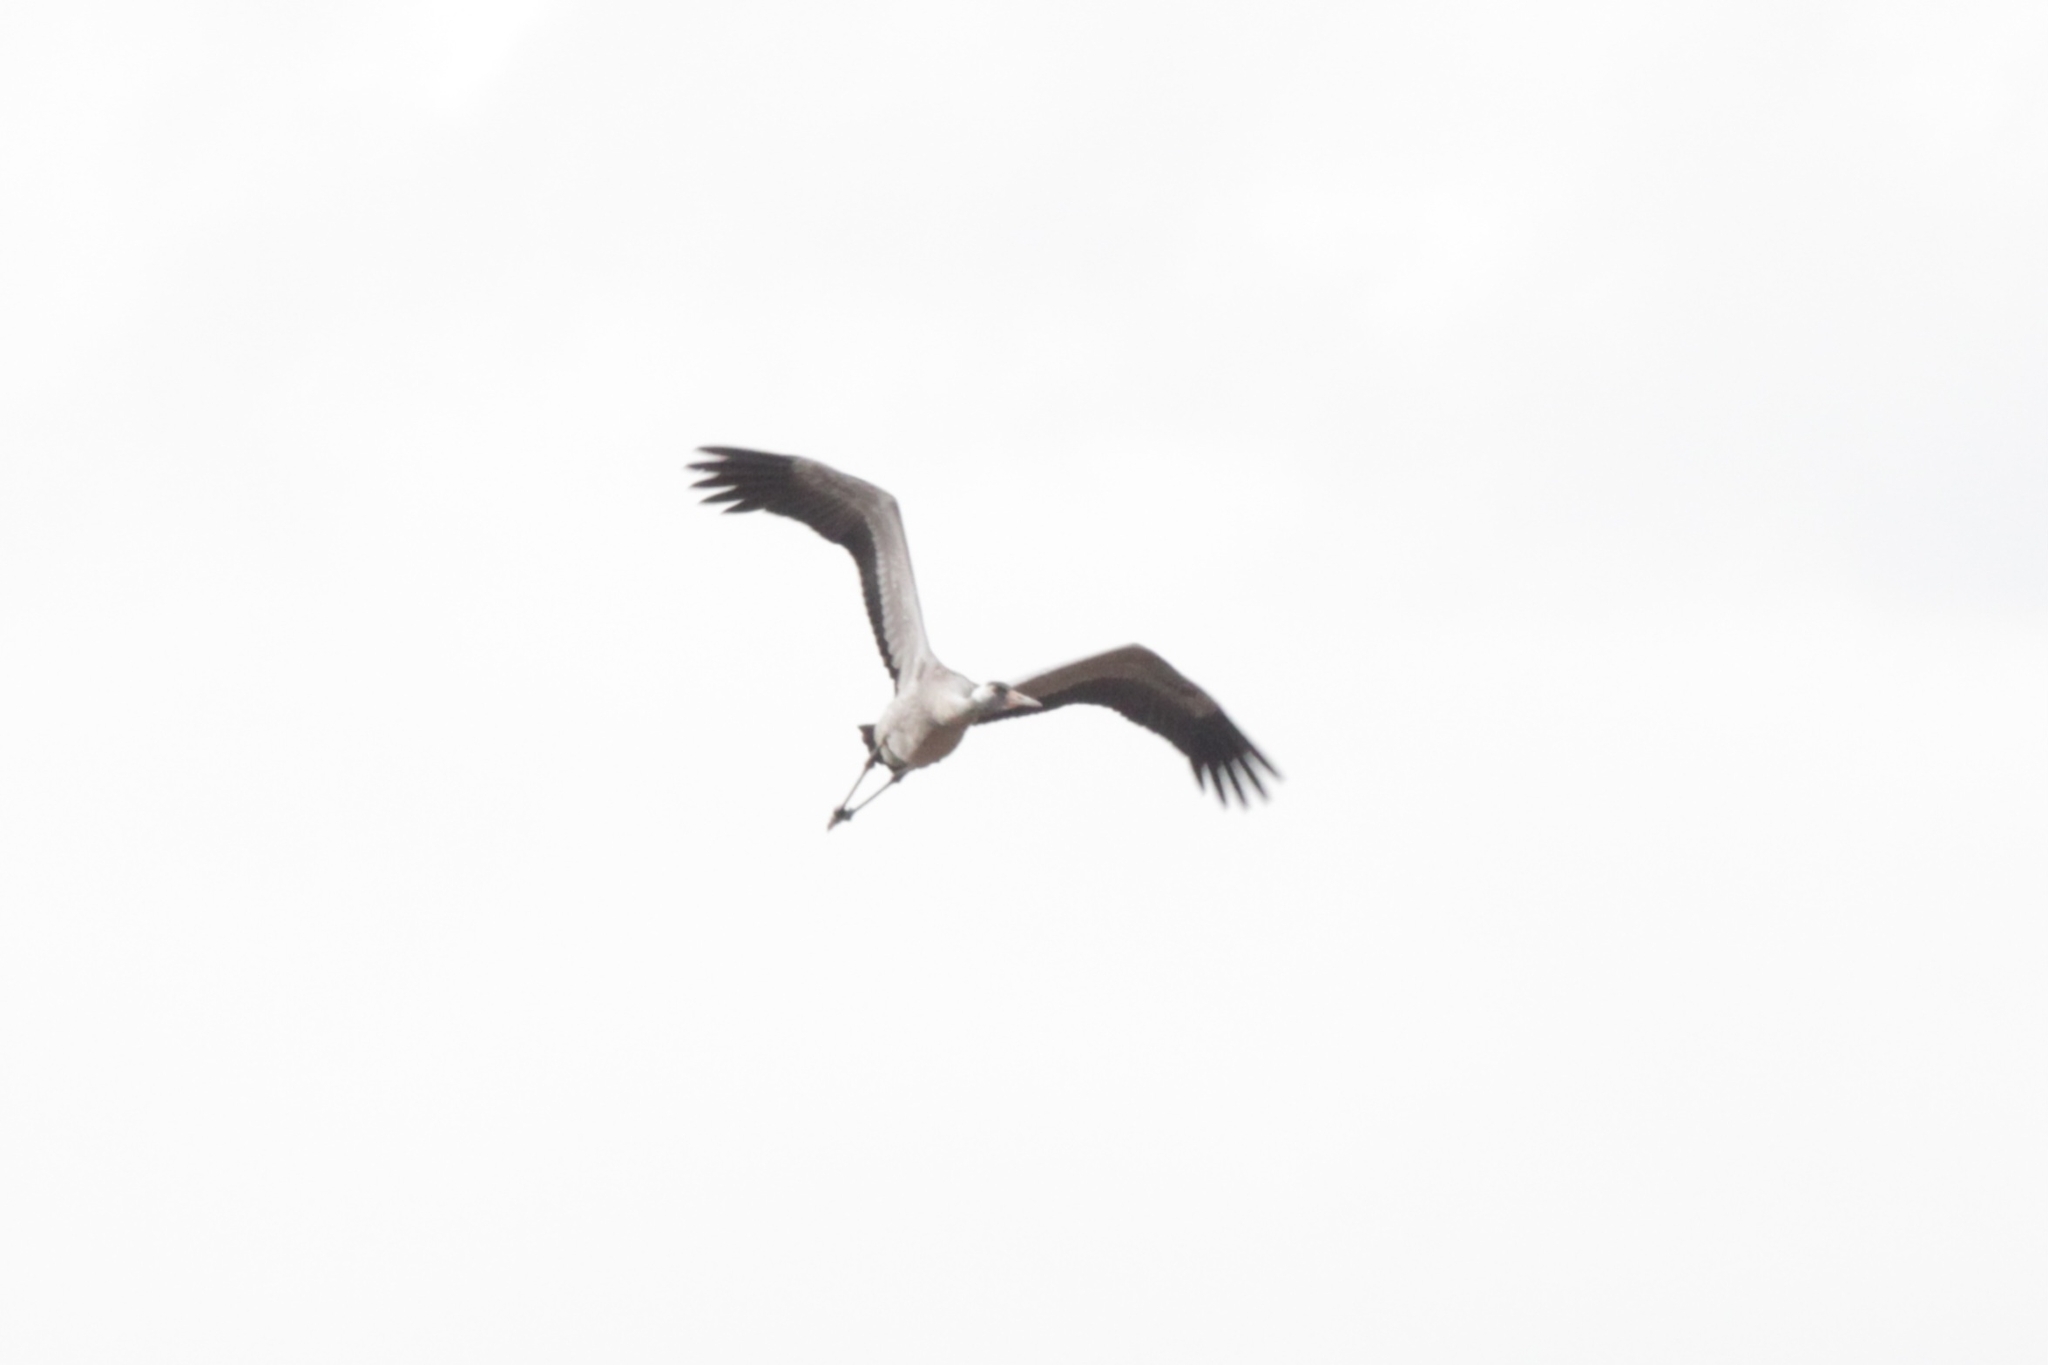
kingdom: Animalia
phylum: Chordata
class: Aves
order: Gruiformes
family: Gruidae
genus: Grus
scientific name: Grus grus
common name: Common crane
